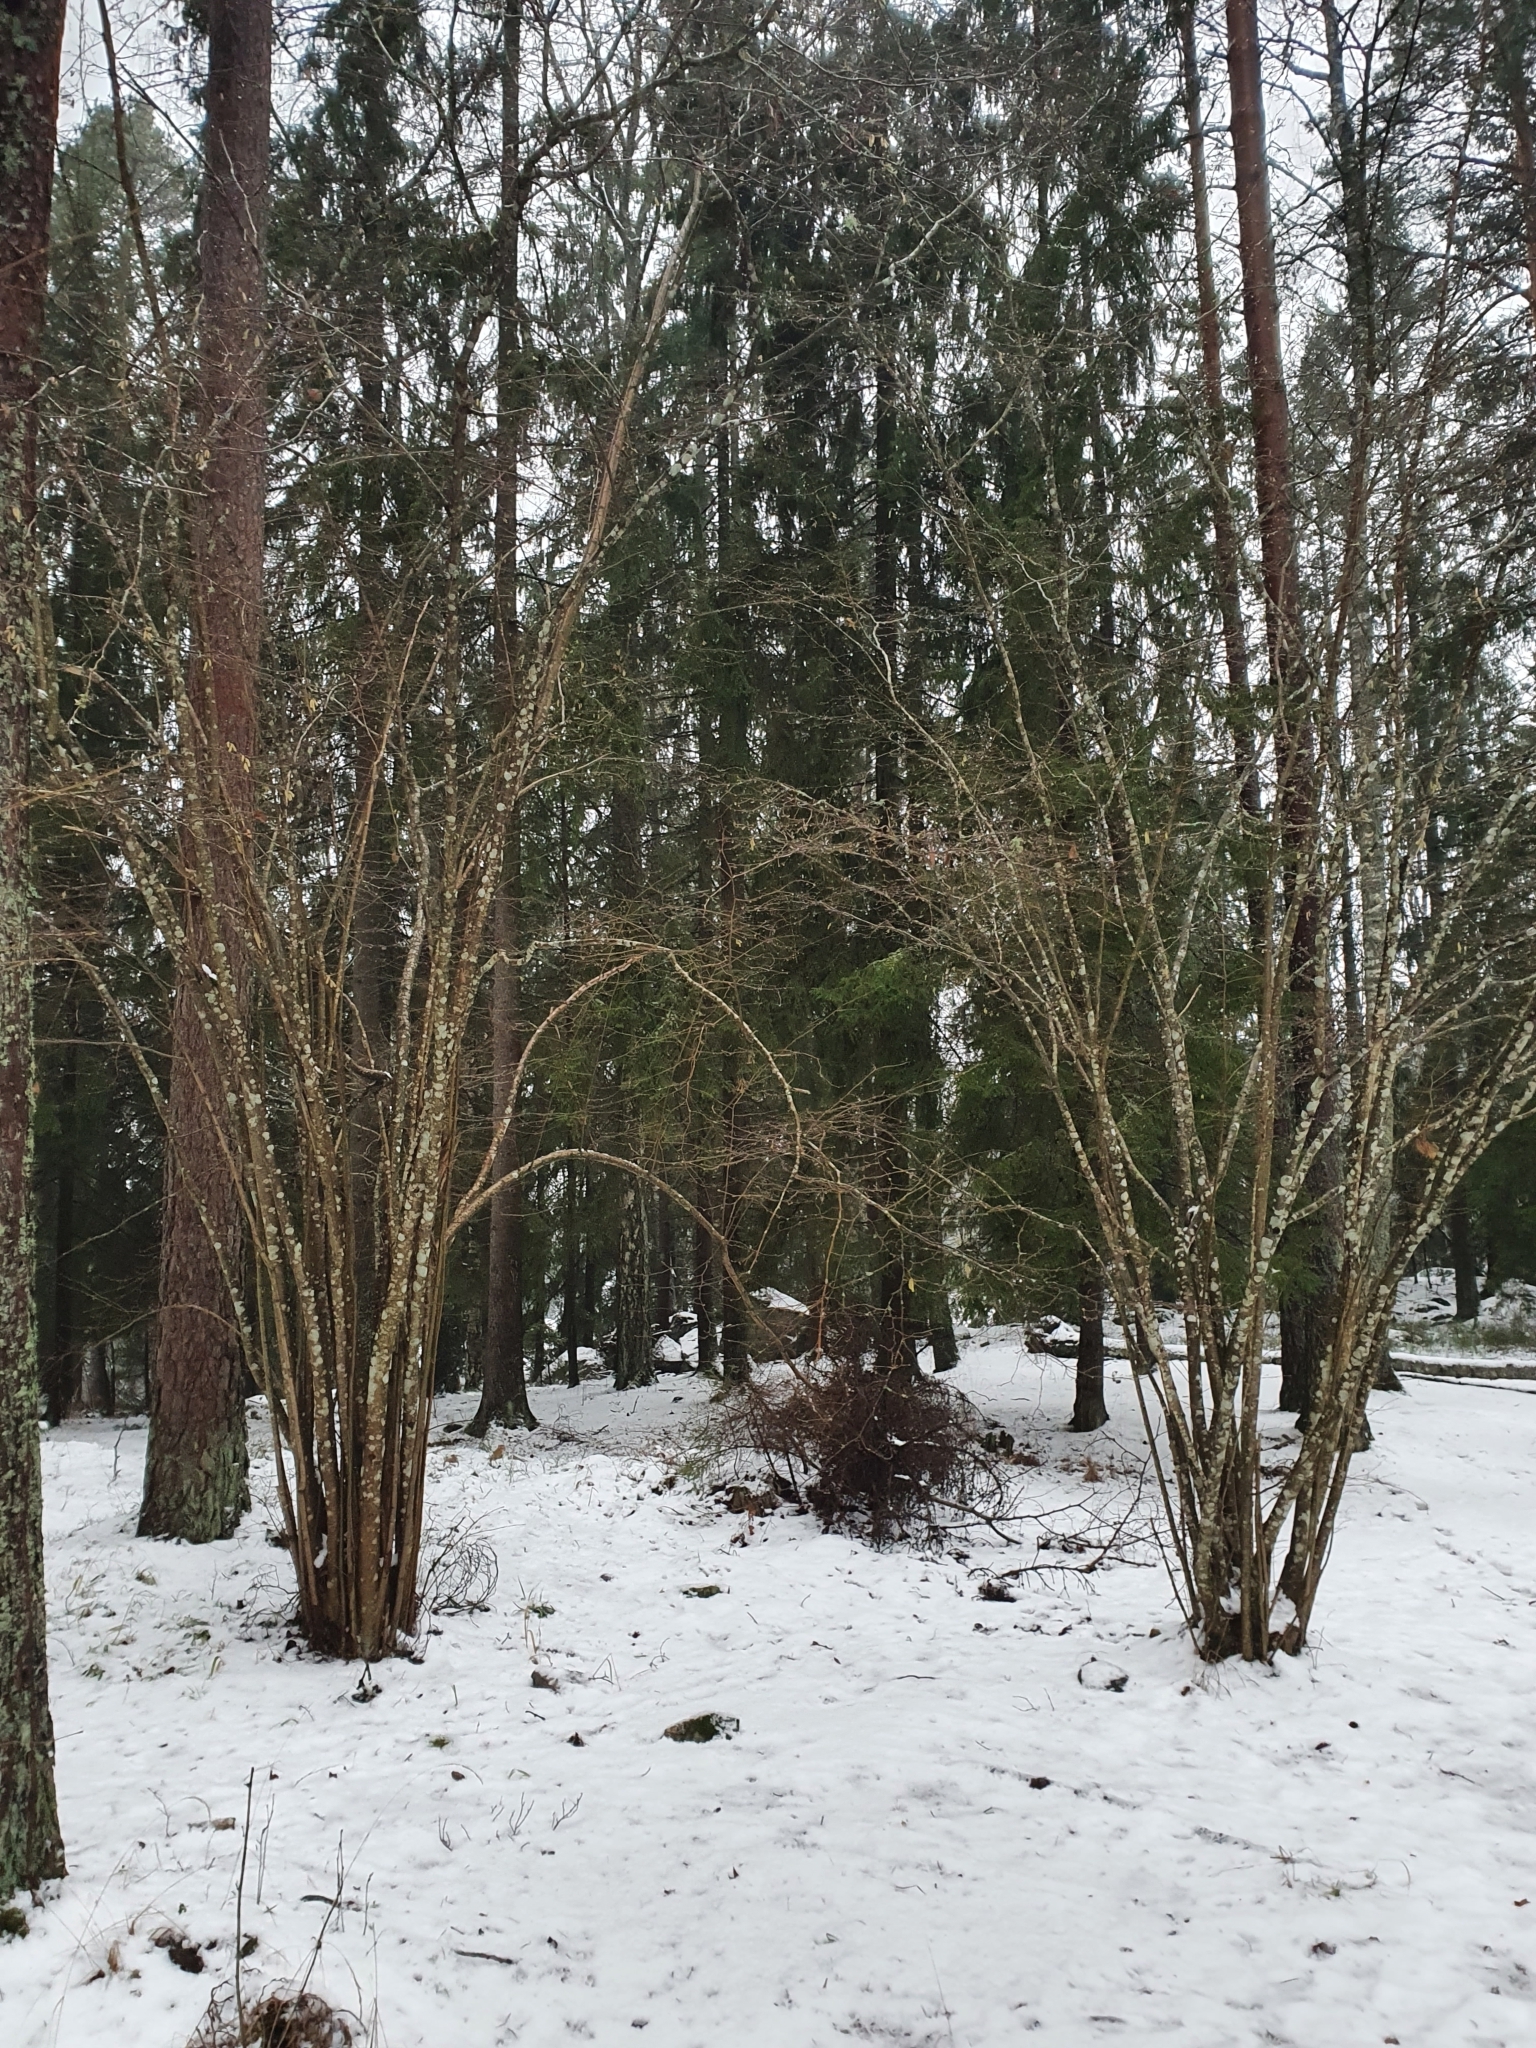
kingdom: Plantae
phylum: Tracheophyta
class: Magnoliopsida
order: Fagales
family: Betulaceae
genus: Corylus
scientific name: Corylus avellana
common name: European hazel
